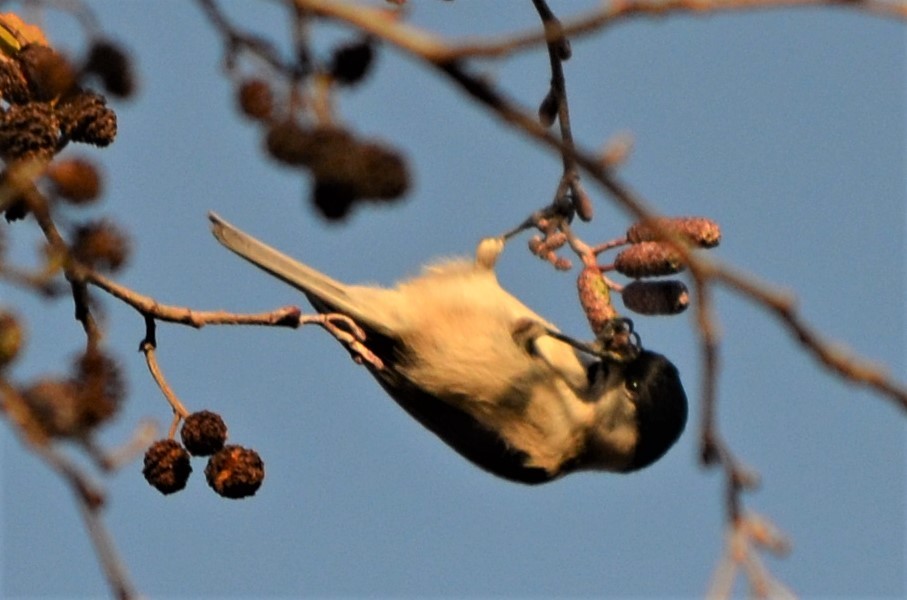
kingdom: Animalia
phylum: Chordata
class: Aves
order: Passeriformes
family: Paridae
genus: Poecile
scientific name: Poecile palustris
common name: Marsh tit
